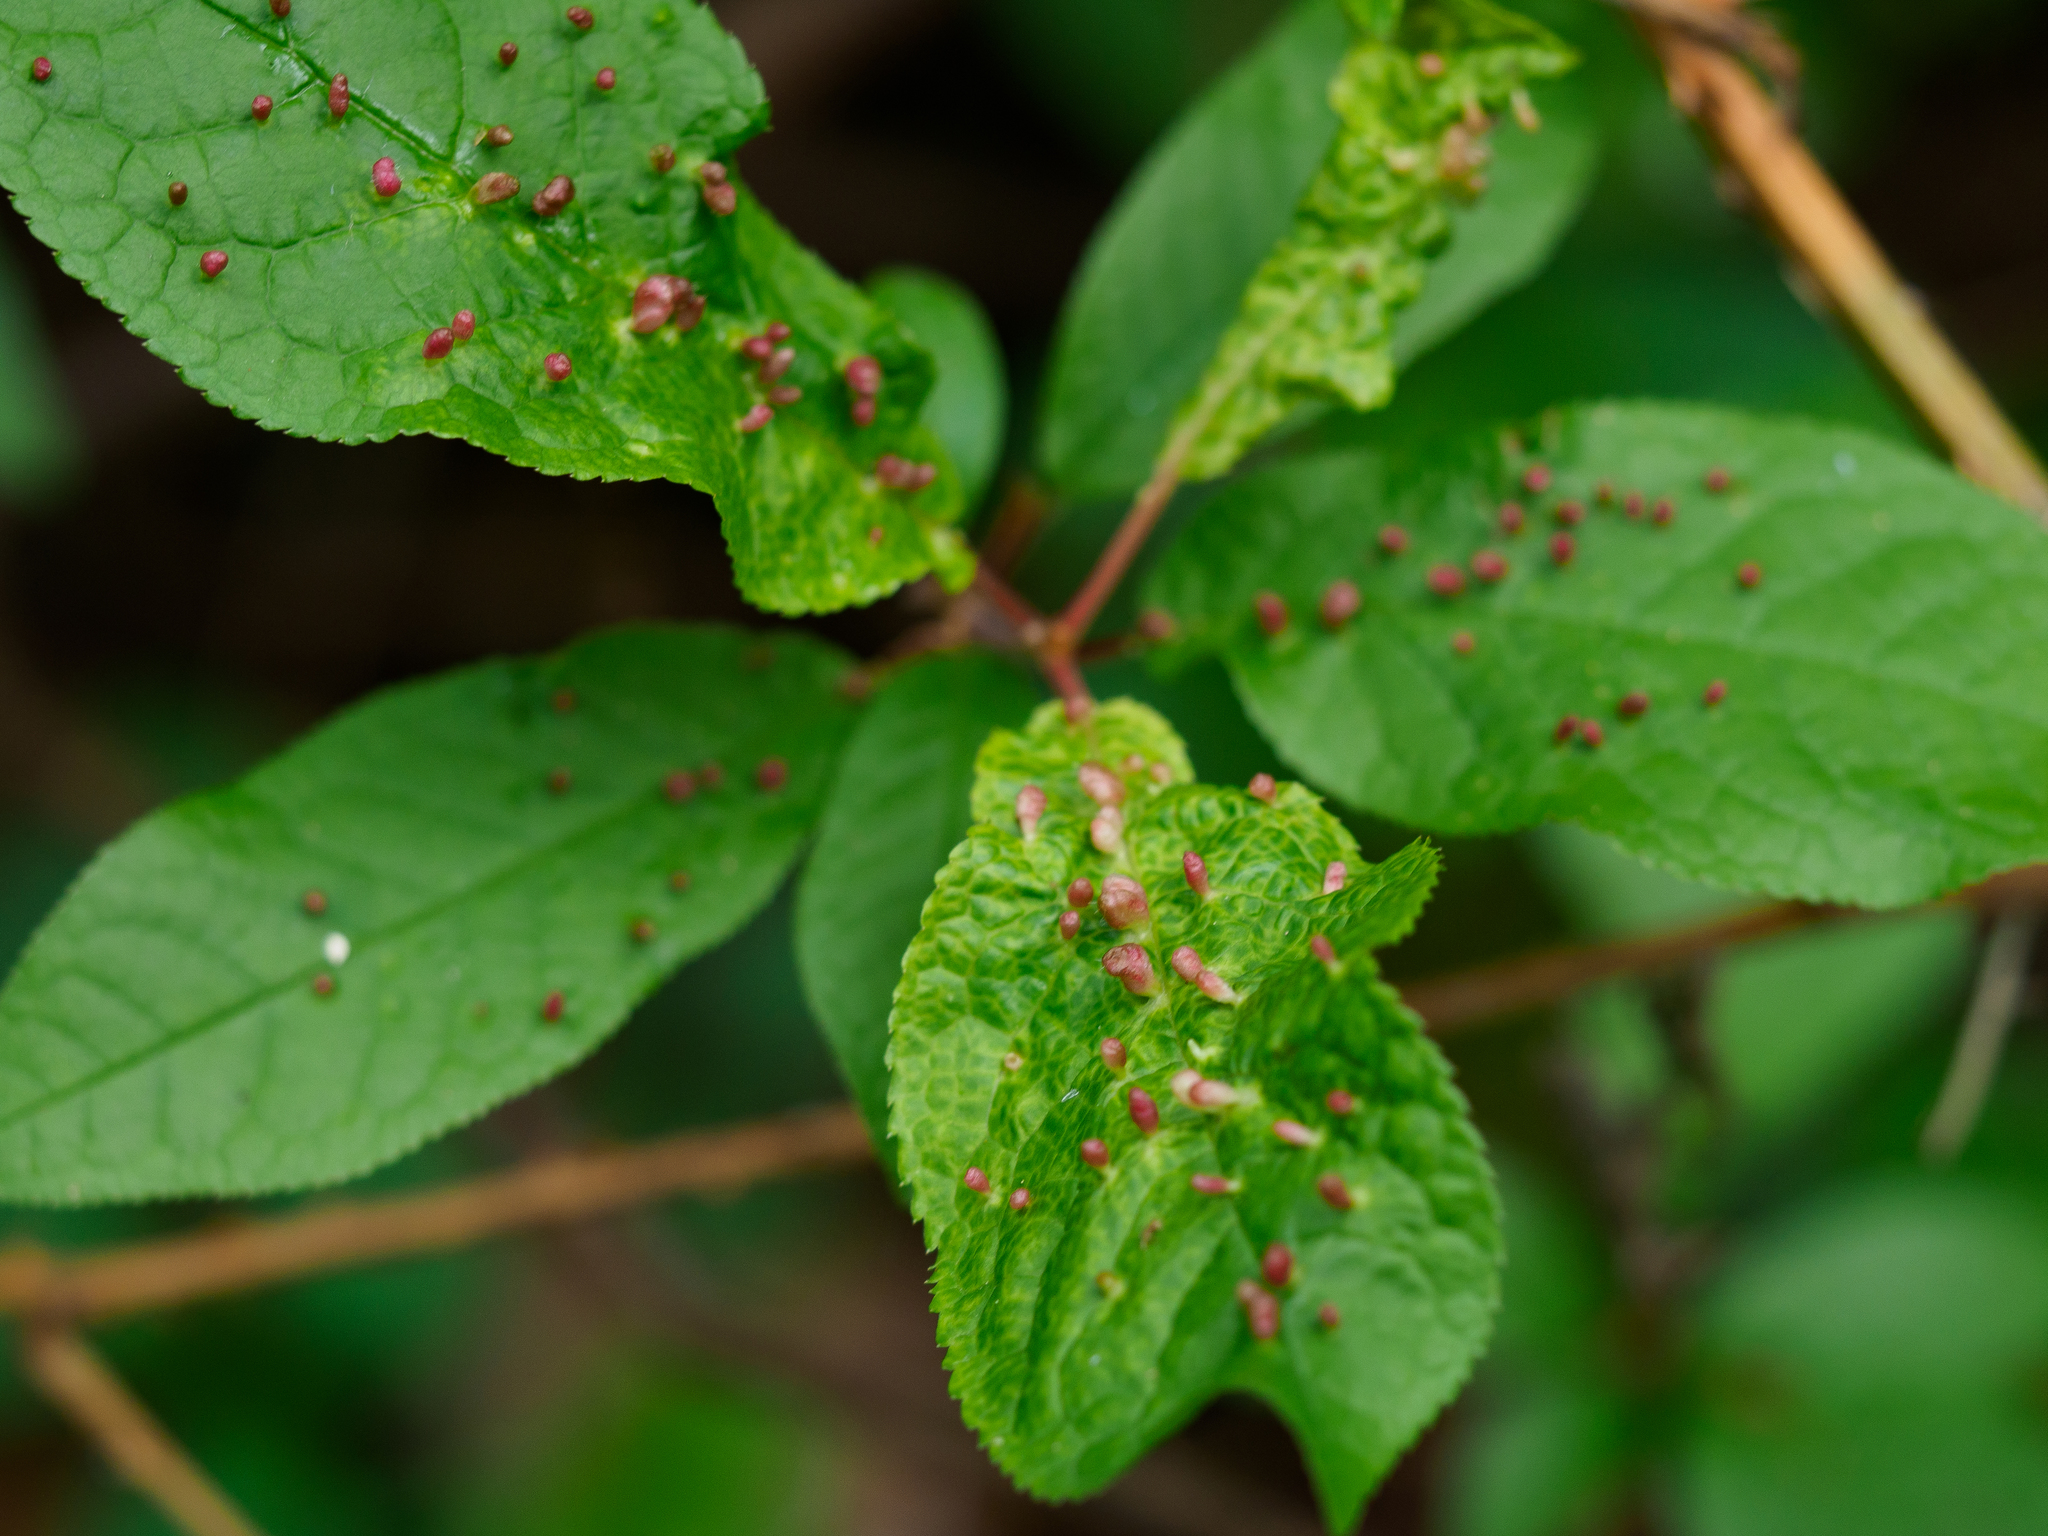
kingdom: Animalia
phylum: Arthropoda
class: Arachnida
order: Trombidiformes
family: Eriophyidae
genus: Phyllocoptes
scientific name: Phyllocoptes eupadi
